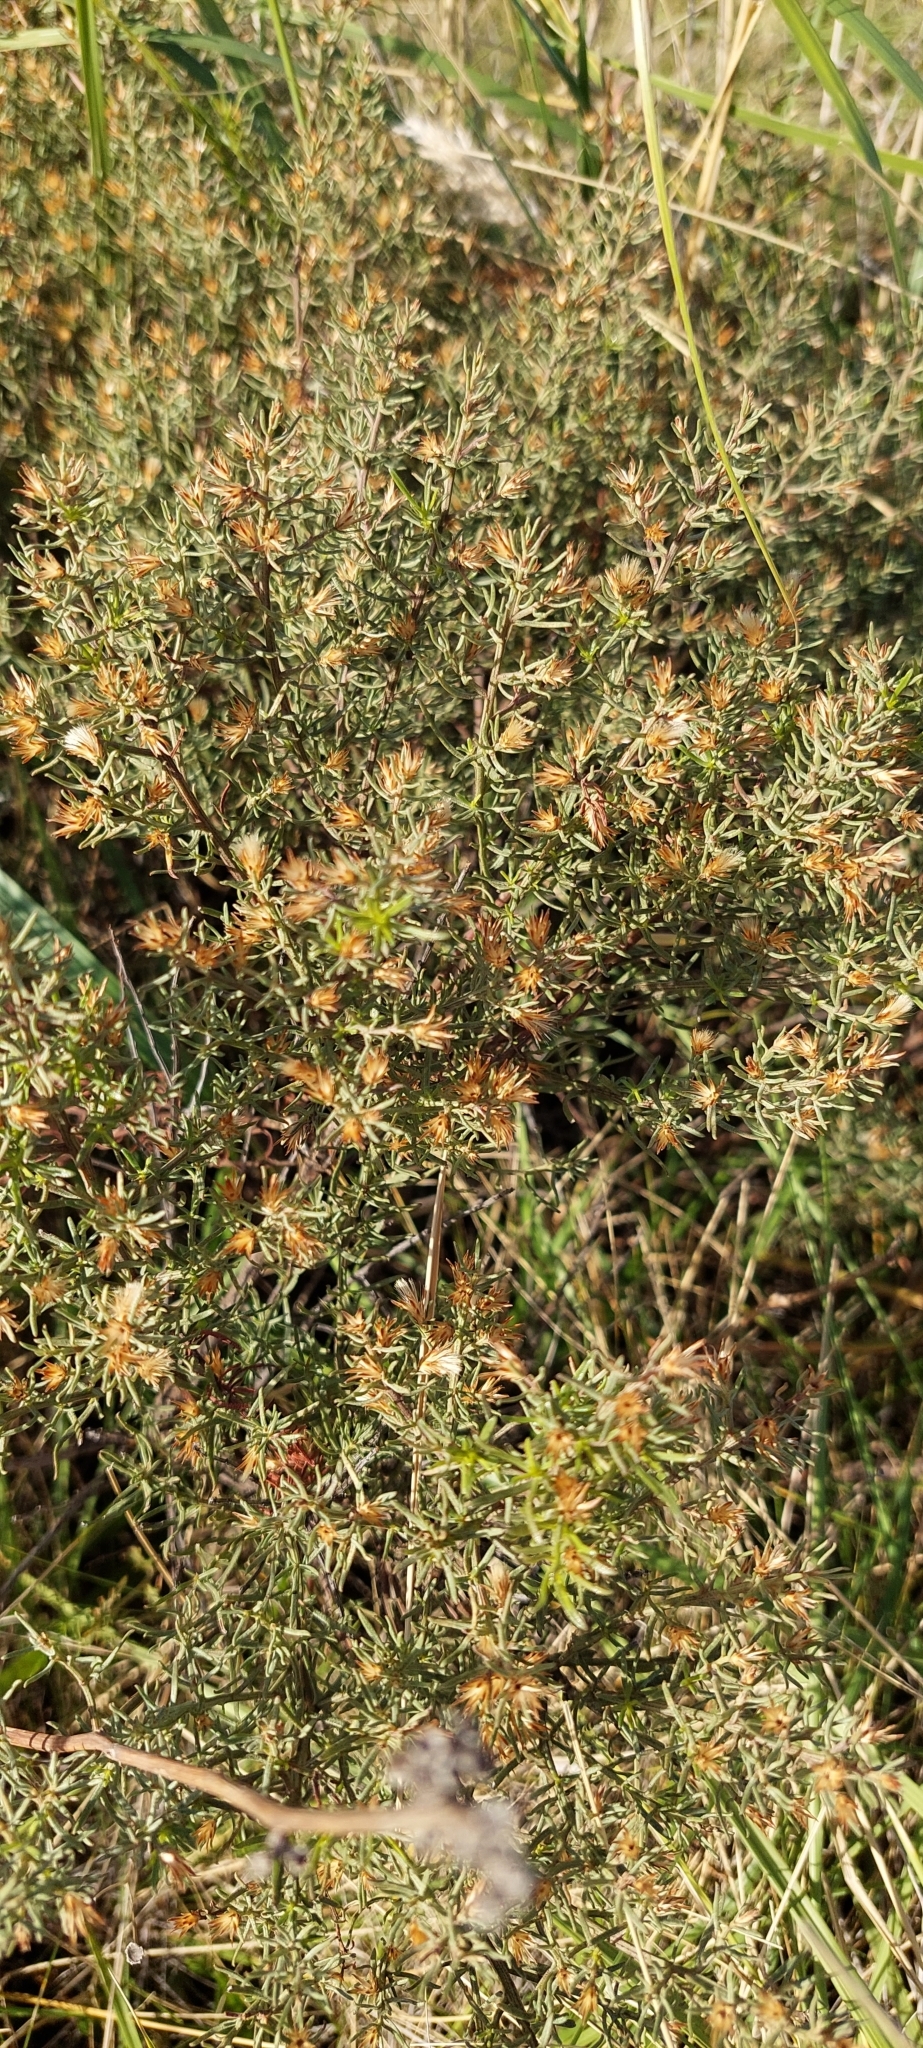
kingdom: Plantae
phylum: Tracheophyta
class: Magnoliopsida
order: Asterales
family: Asteraceae
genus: Baccharis
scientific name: Baccharis artemisioides
